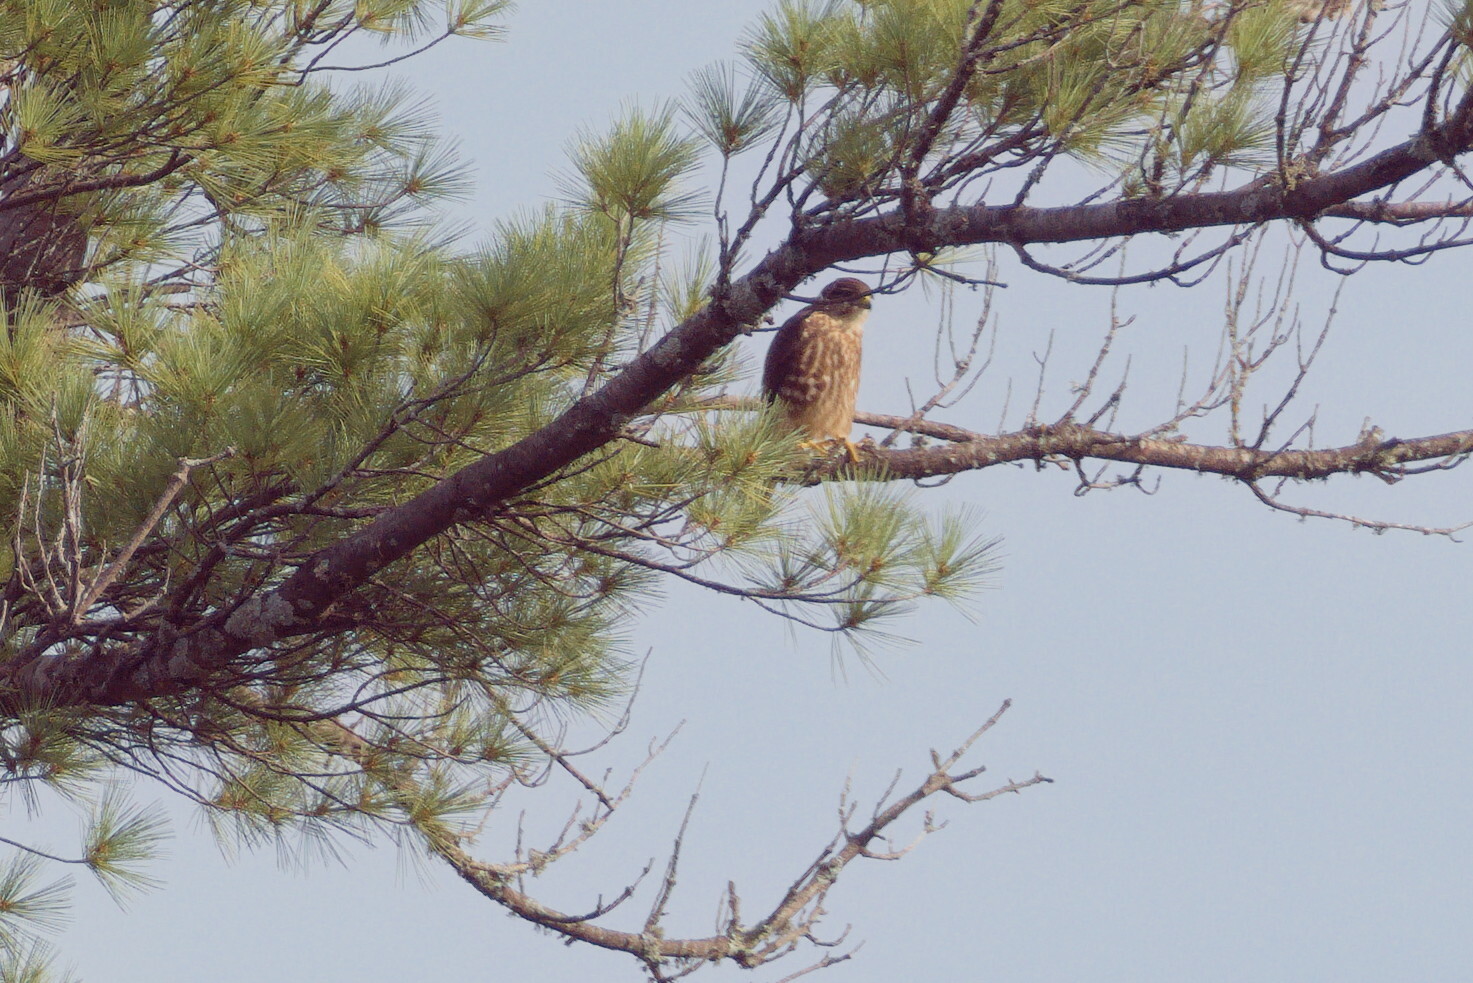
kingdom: Animalia
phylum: Chordata
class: Aves
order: Accipitriformes
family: Accipitridae
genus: Accipiter
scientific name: Accipiter cooperii
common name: Cooper's hawk
